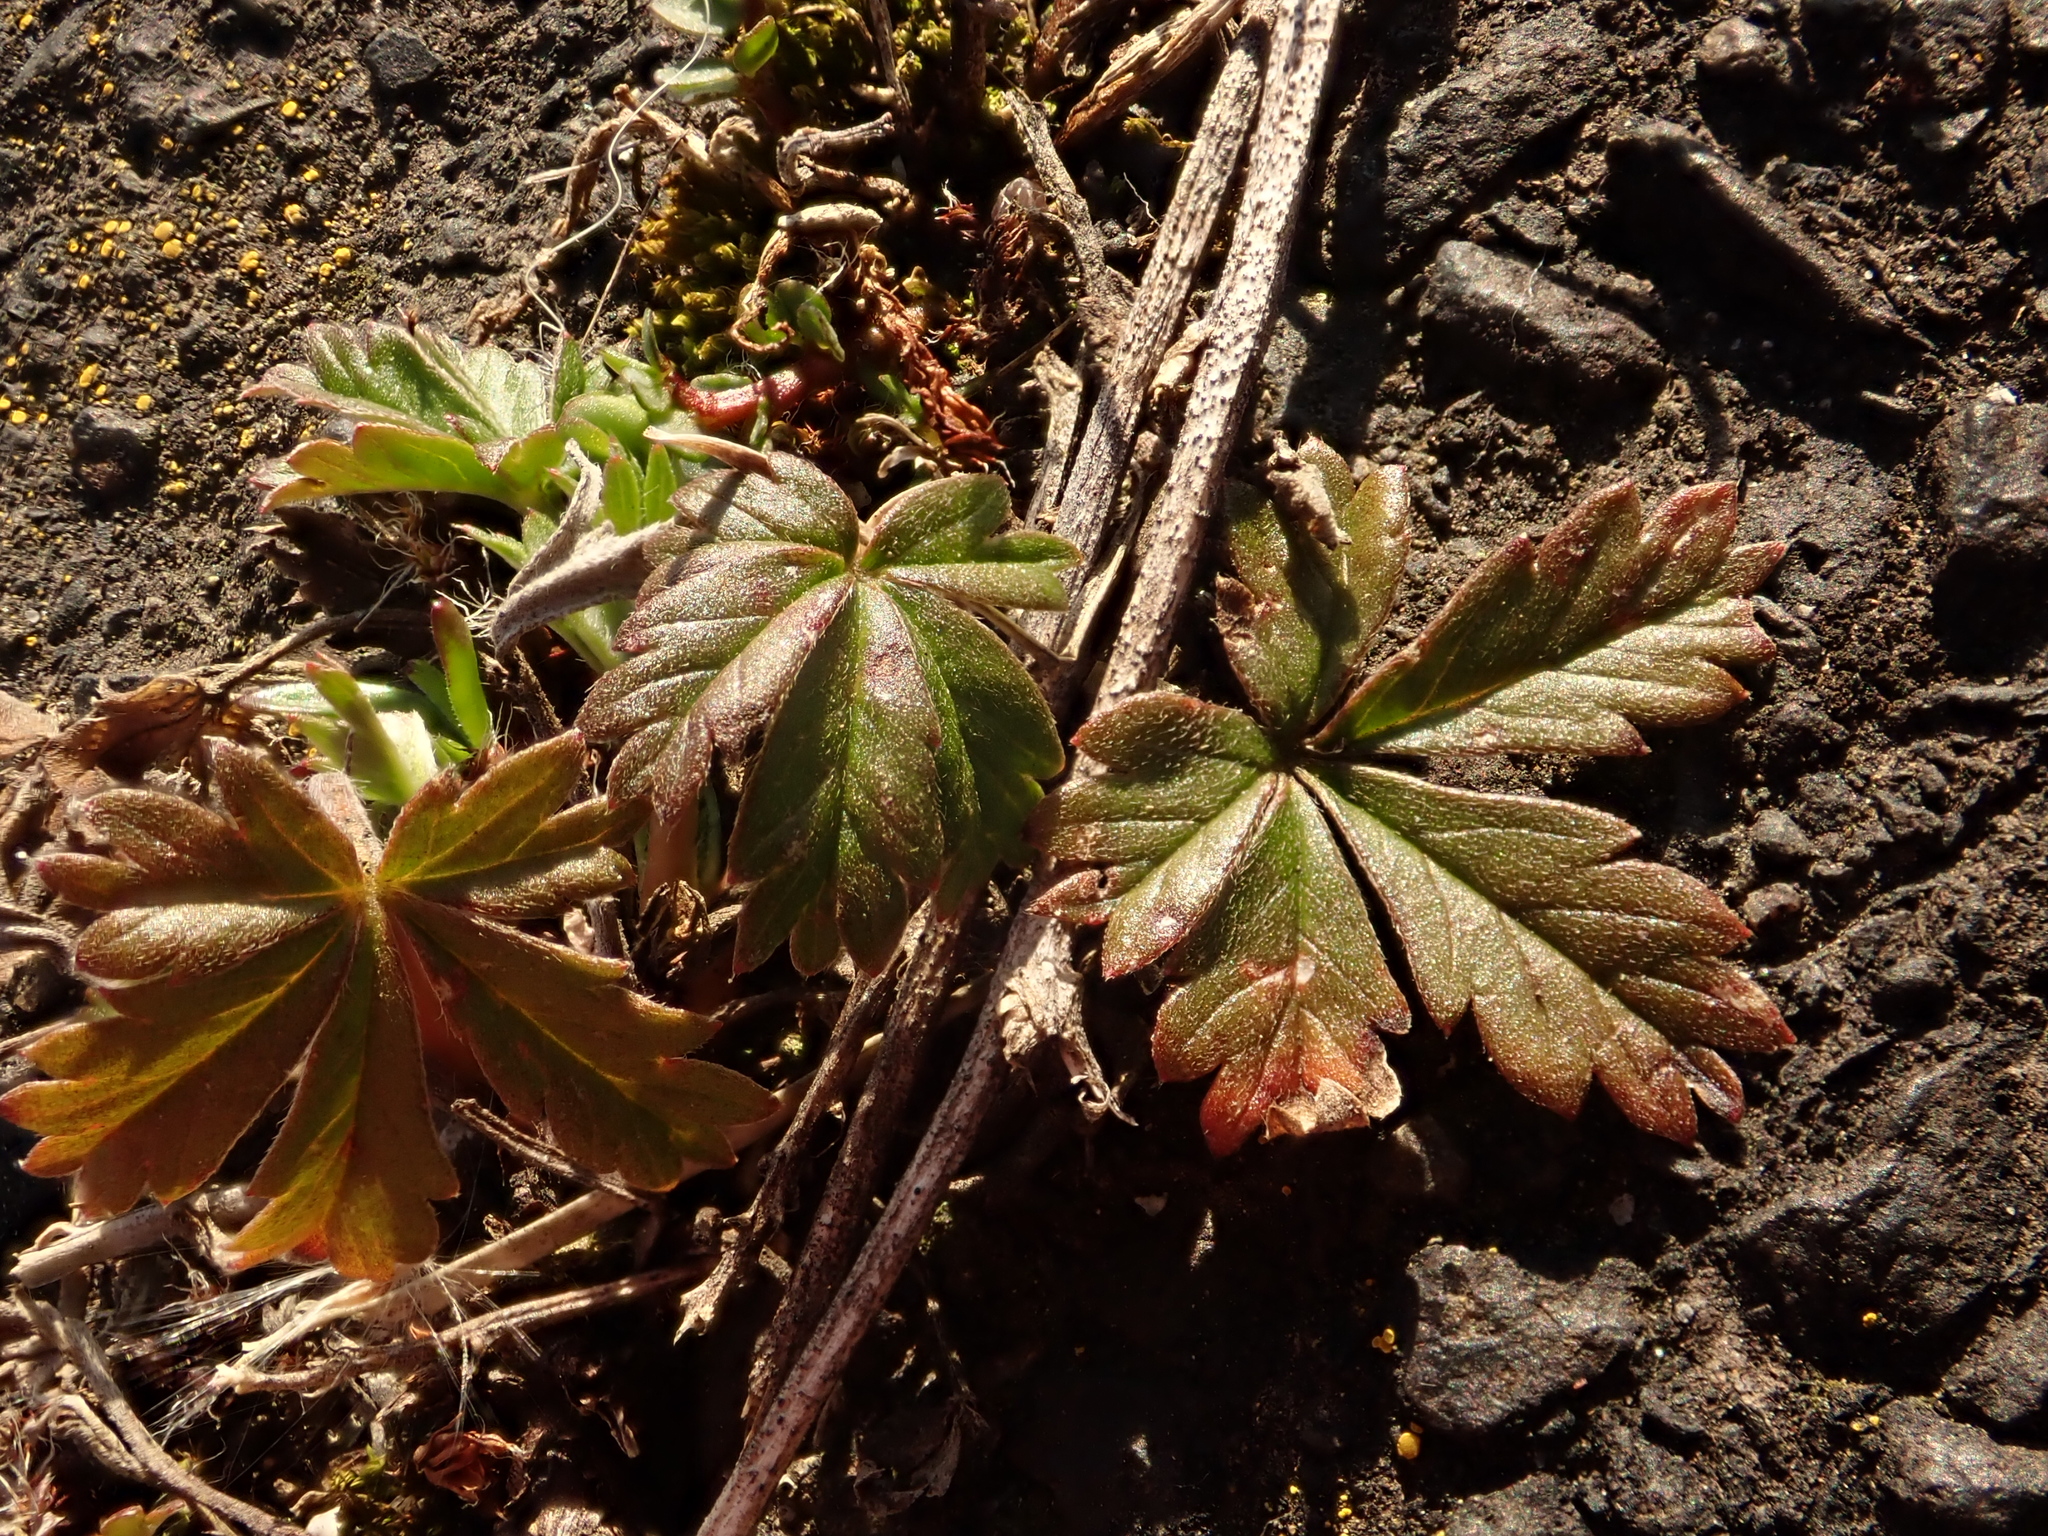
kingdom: Plantae
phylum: Tracheophyta
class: Magnoliopsida
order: Rosales
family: Rosaceae
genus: Potentilla
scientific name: Potentilla argentea
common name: Hoary cinquefoil
